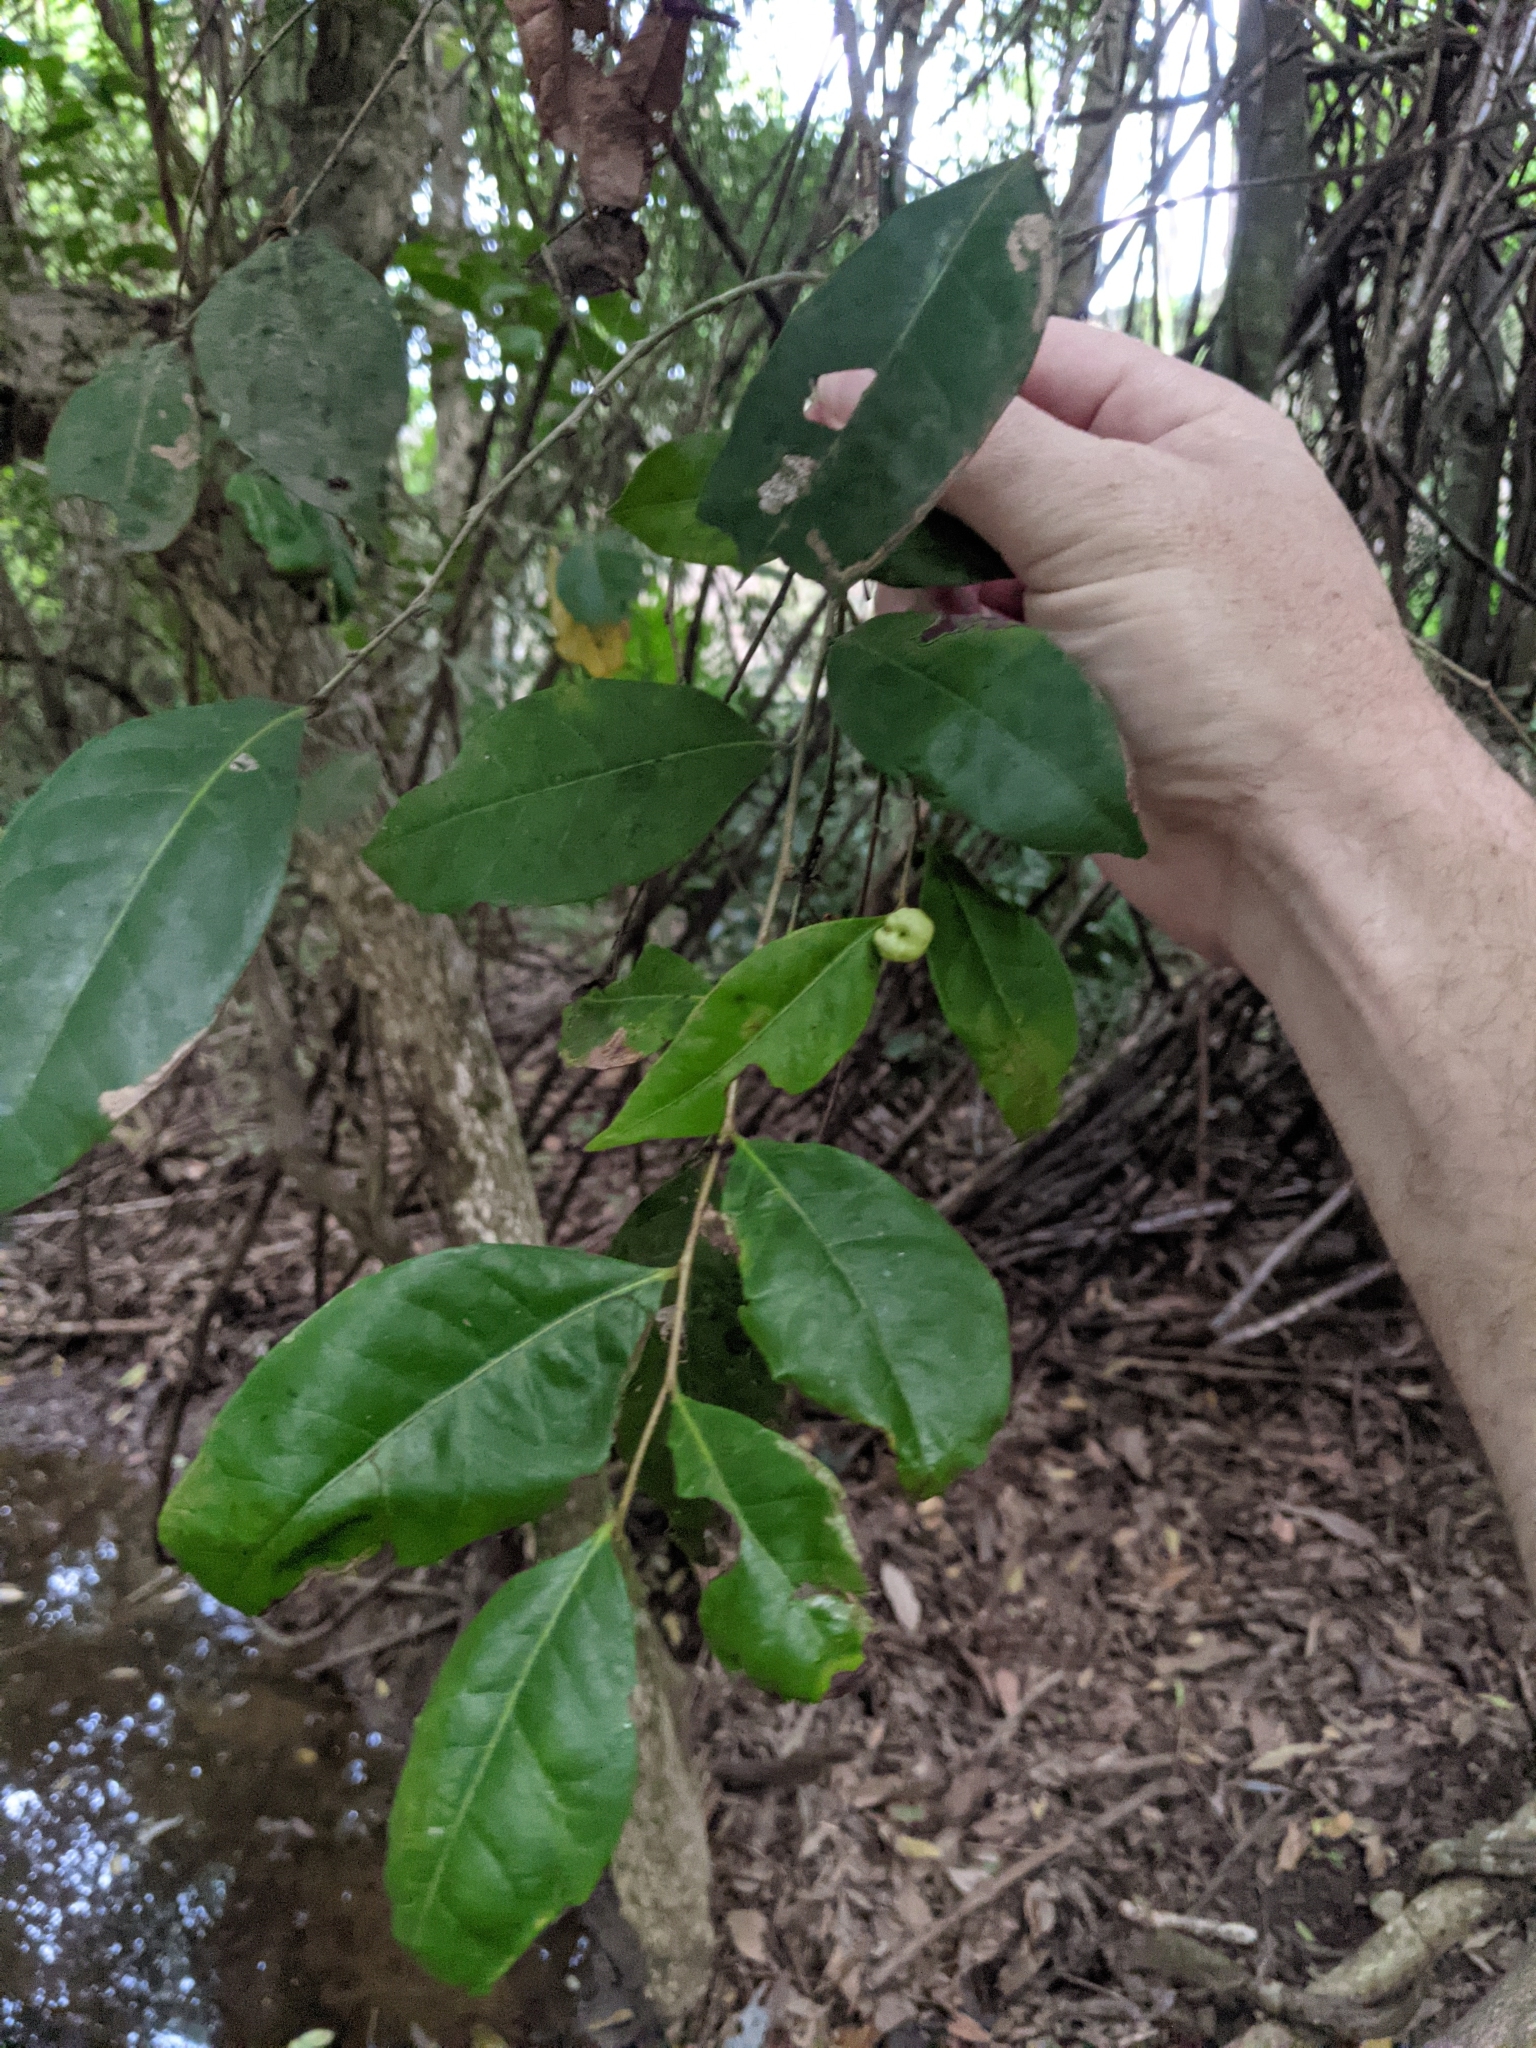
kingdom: Plantae
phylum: Tracheophyta
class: Magnoliopsida
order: Malpighiales
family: Phyllanthaceae
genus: Glochidion
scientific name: Glochidion ferdinandi
